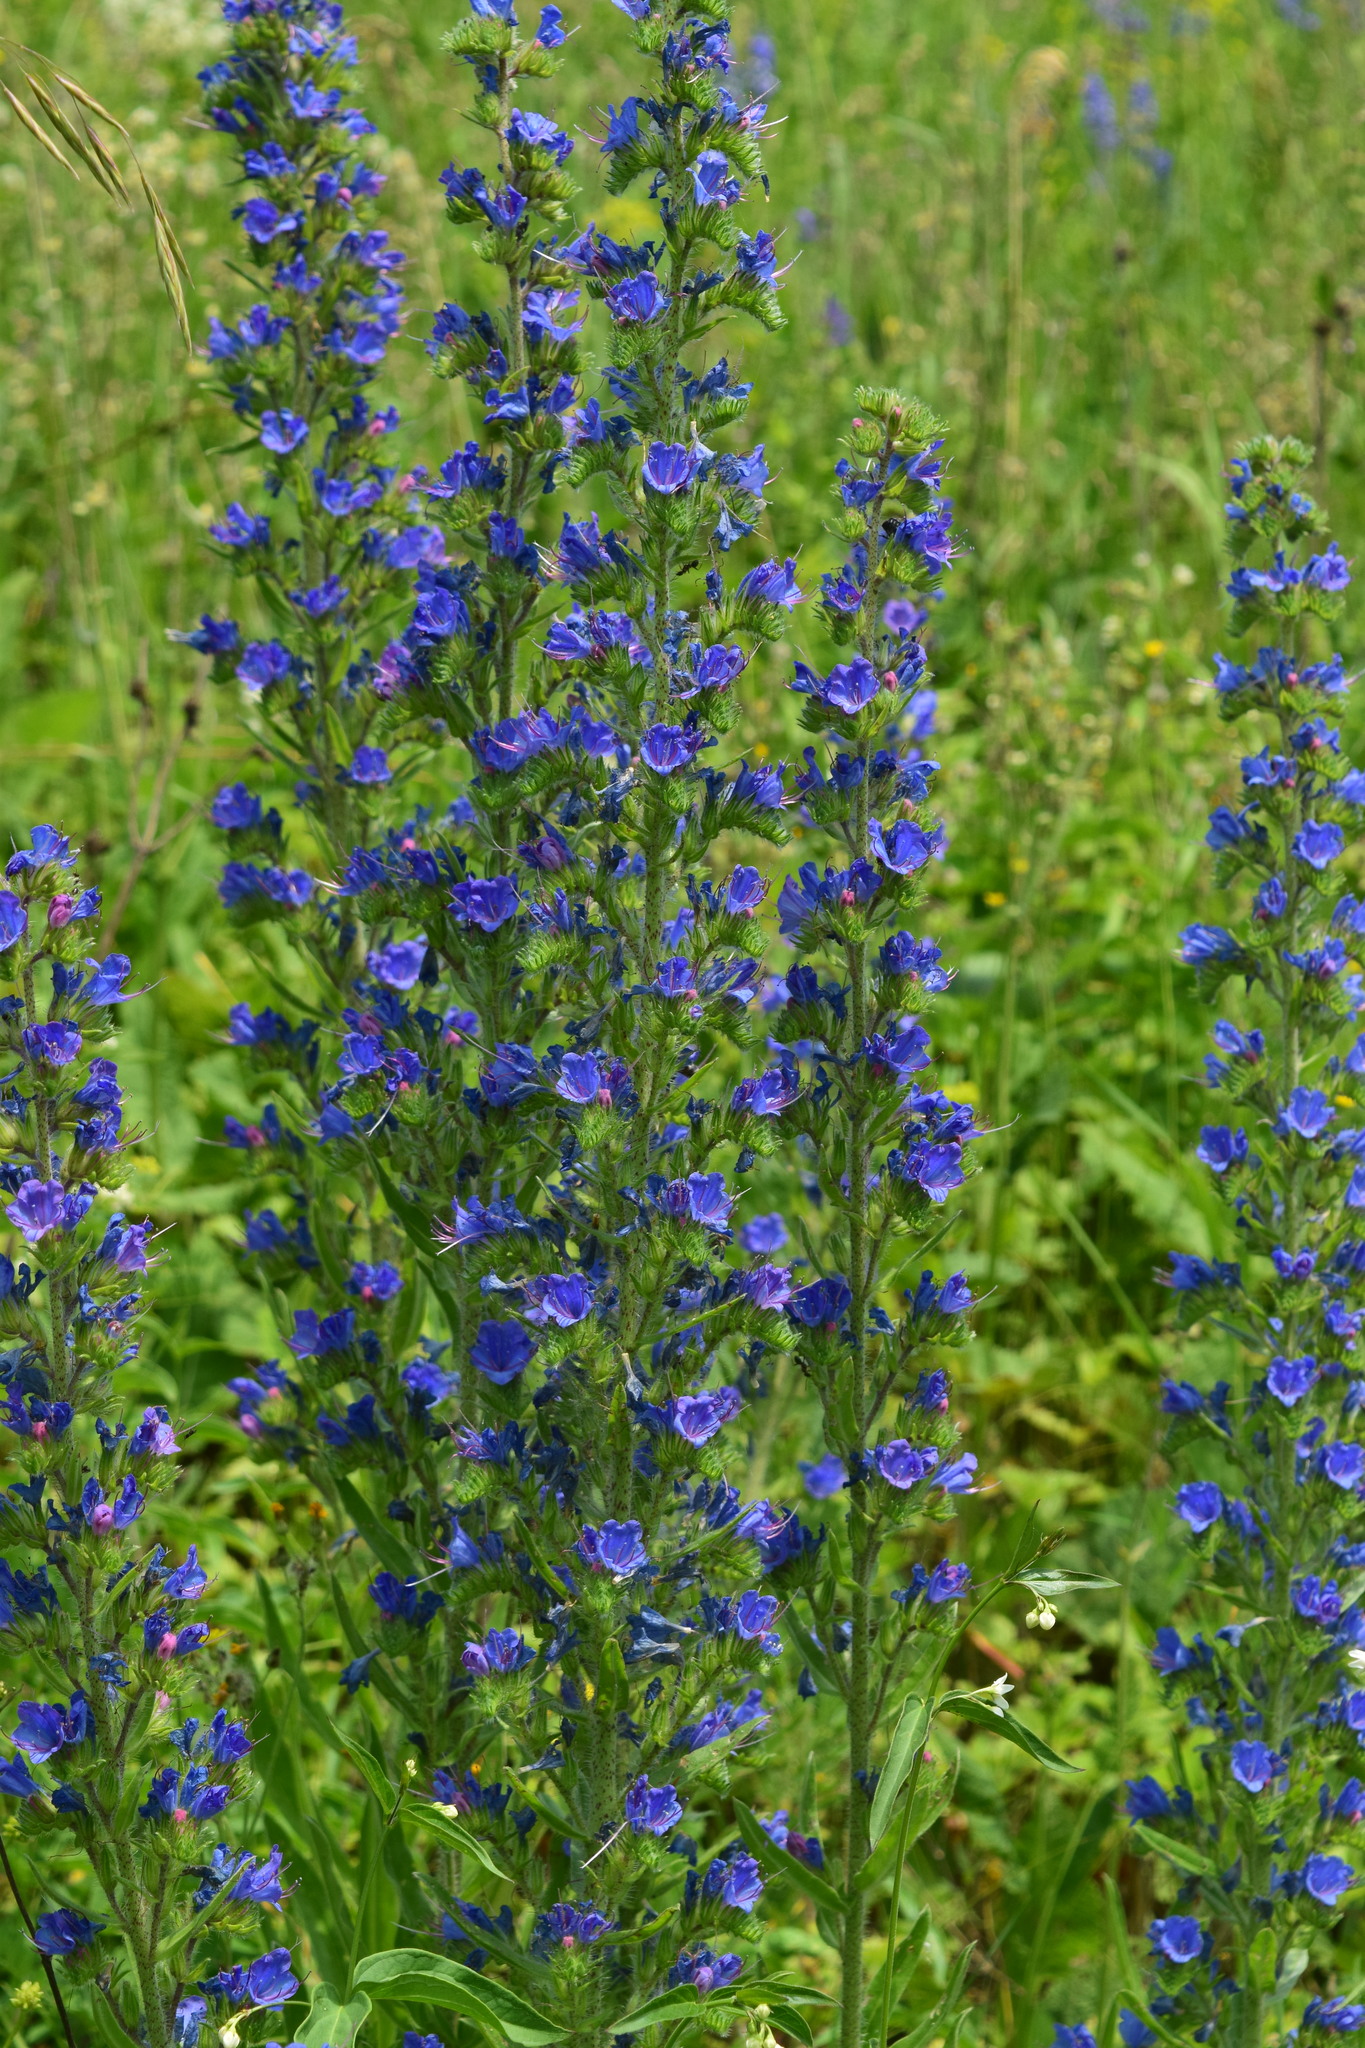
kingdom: Plantae
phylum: Tracheophyta
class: Magnoliopsida
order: Boraginales
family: Boraginaceae
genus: Echium
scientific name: Echium vulgare
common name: Common viper's bugloss
